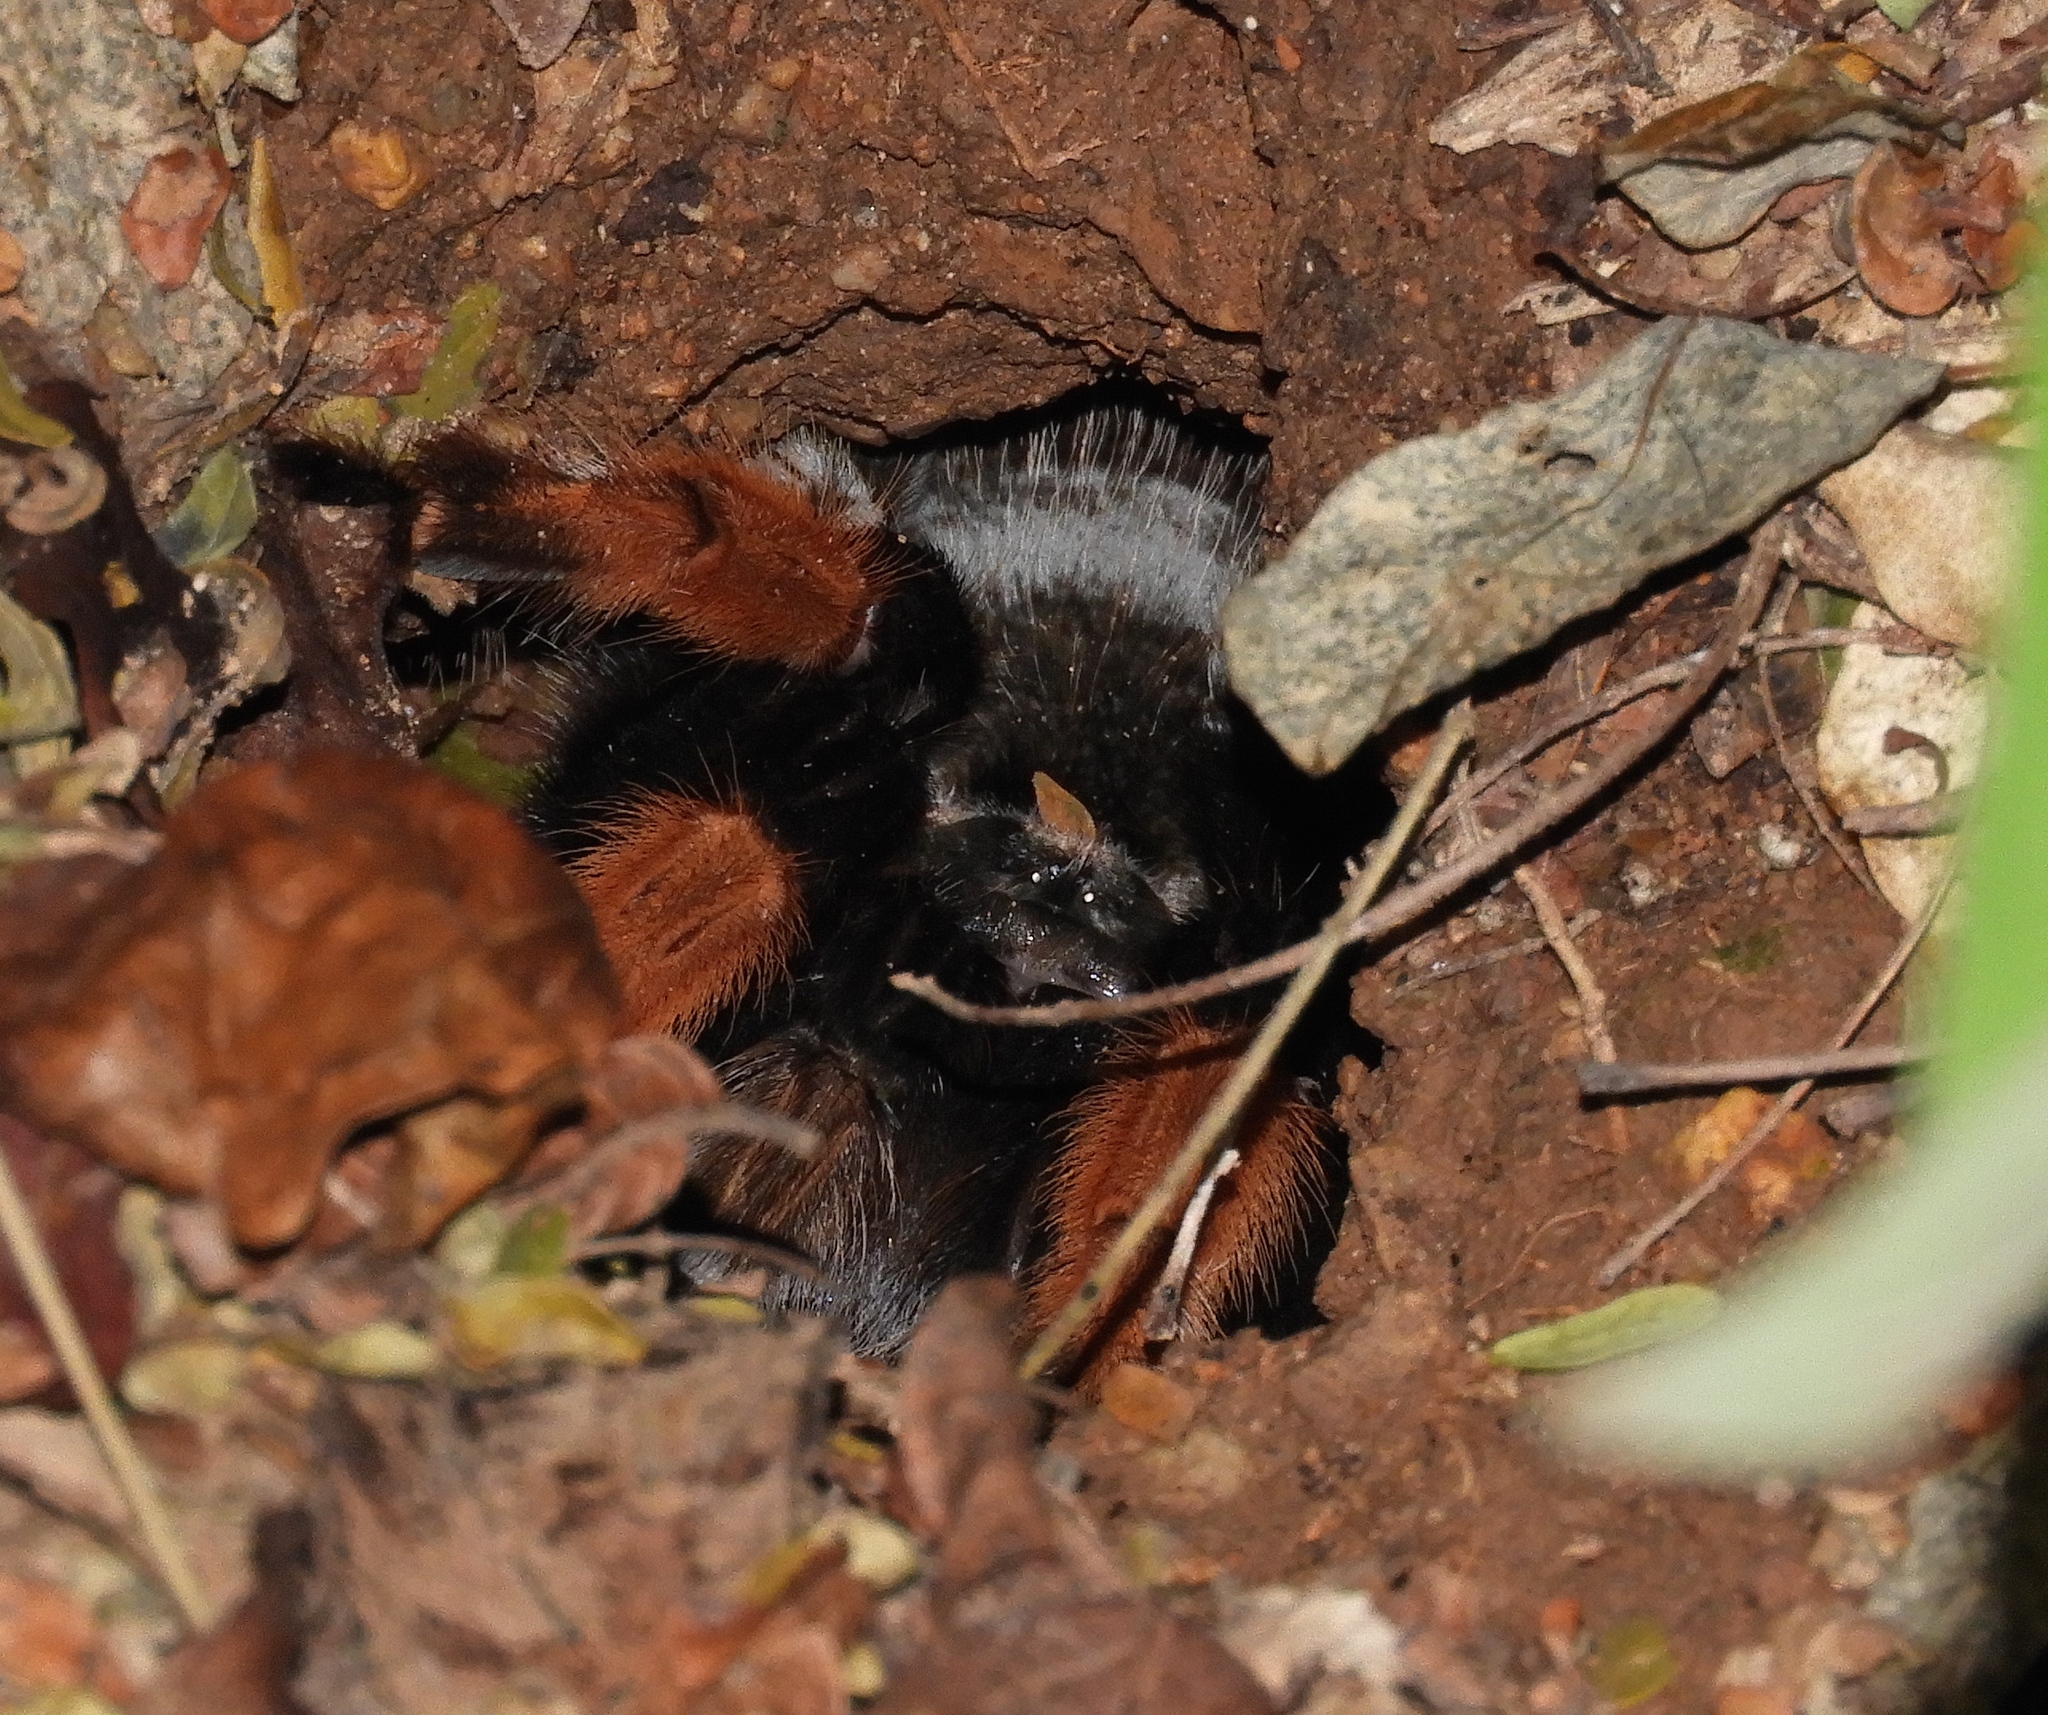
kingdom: Animalia
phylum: Arthropoda
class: Arachnida
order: Araneae
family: Theraphosidae
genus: Brachypelma
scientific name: Brachypelma emilia
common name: Mexican redleg
